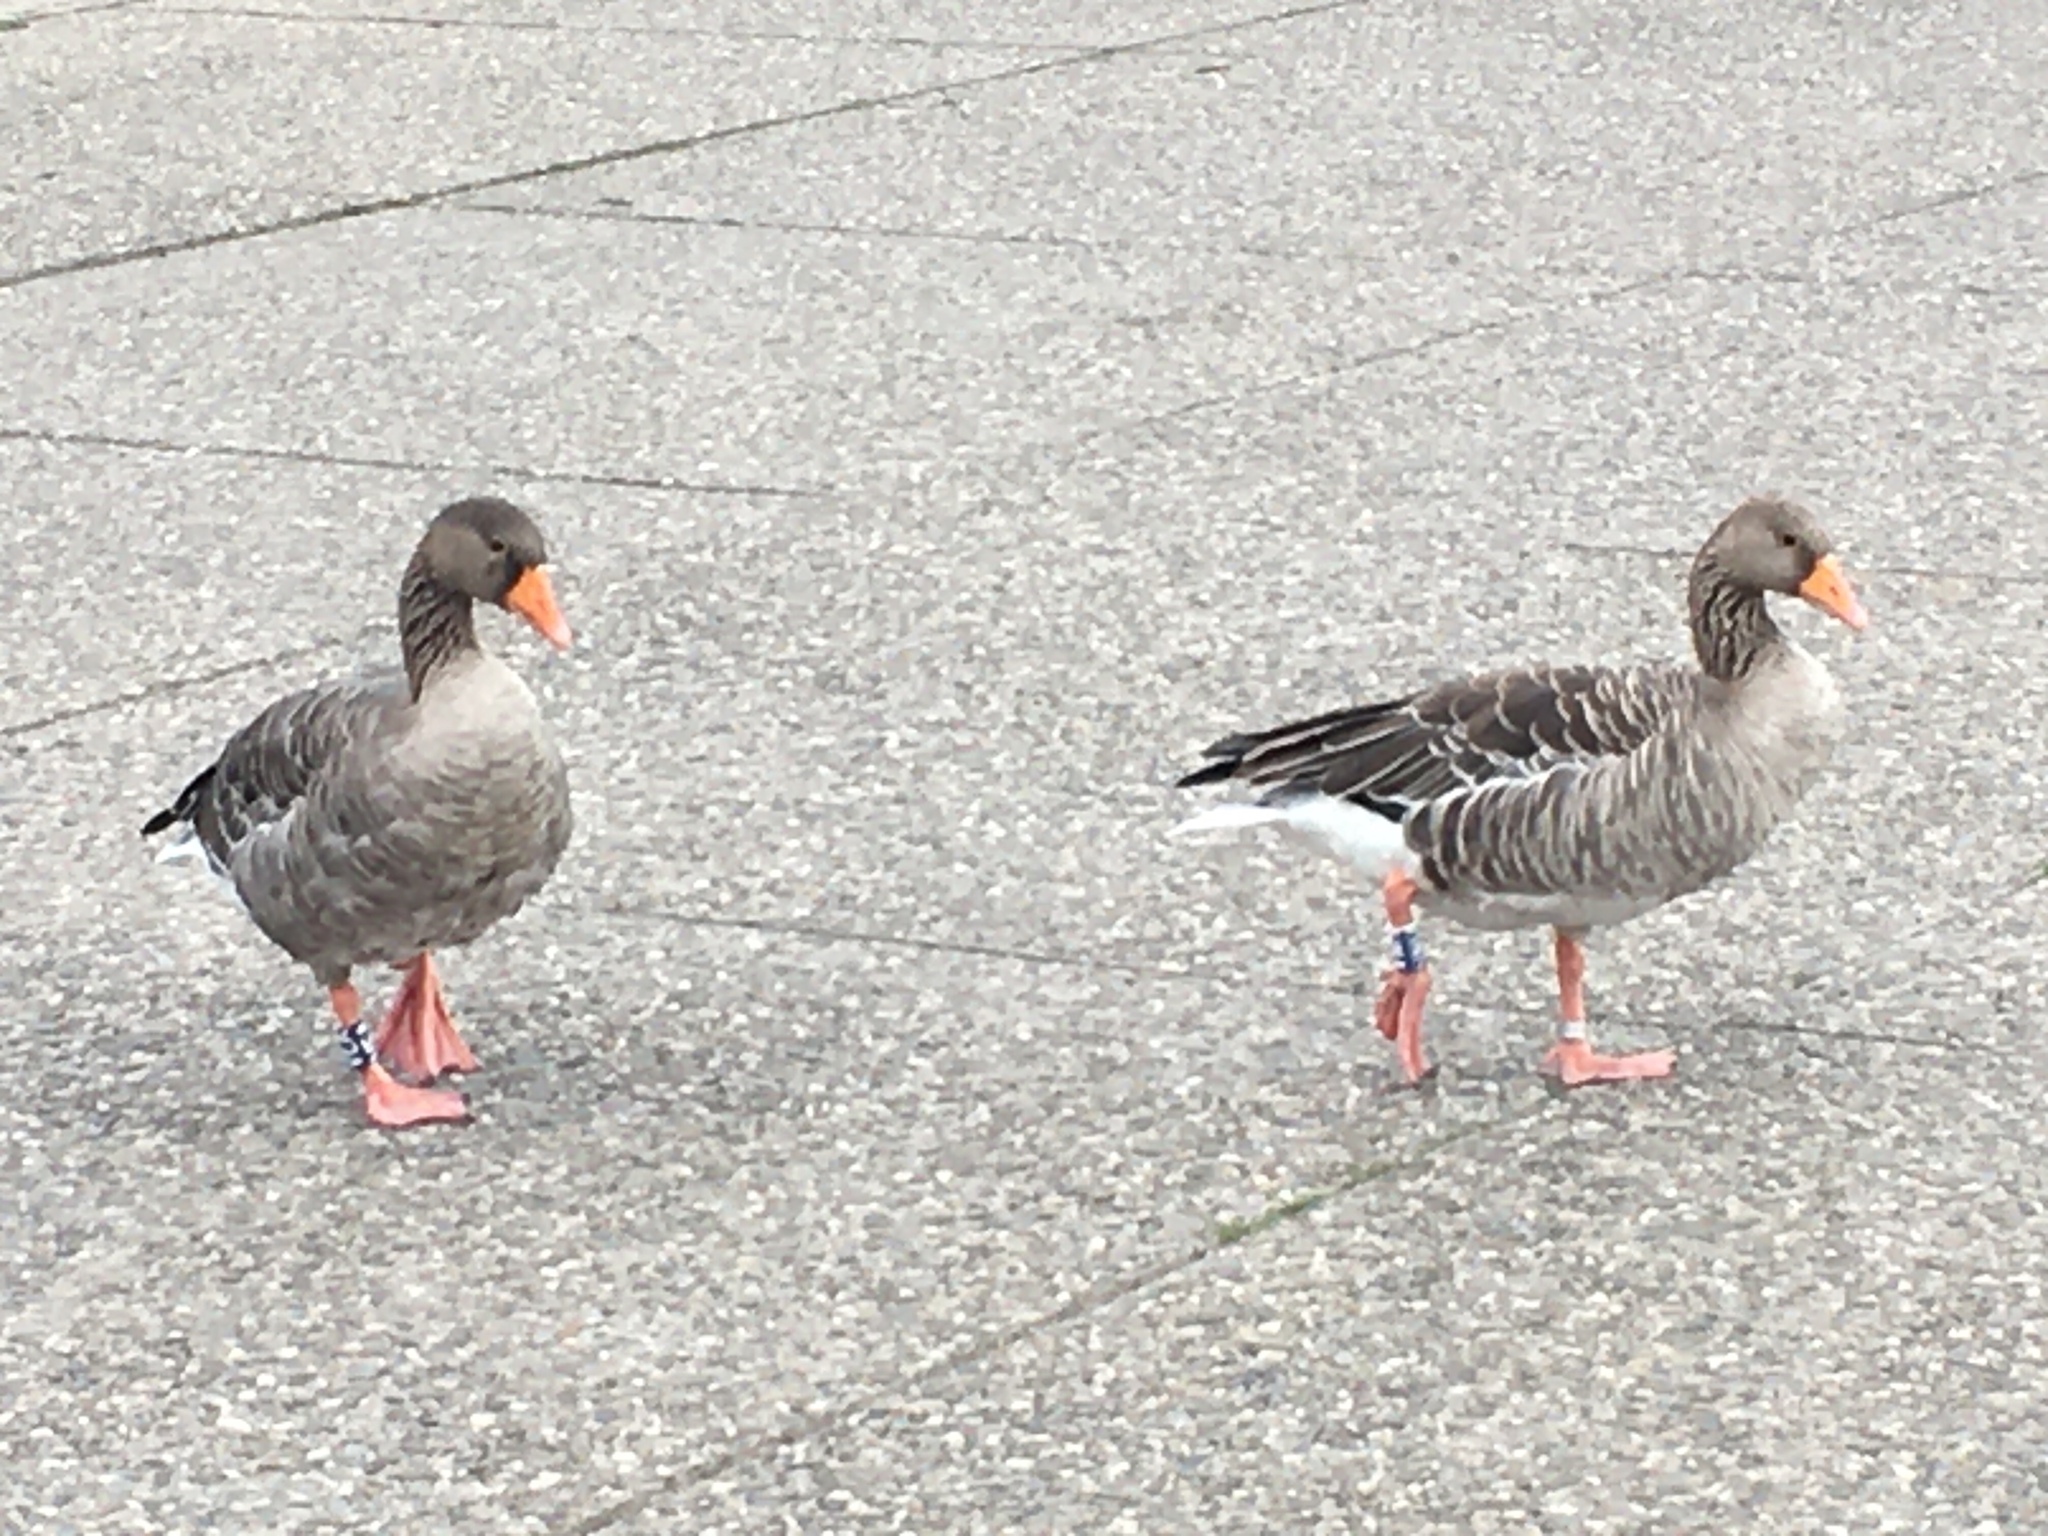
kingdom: Animalia
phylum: Chordata
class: Aves
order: Anseriformes
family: Anatidae
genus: Anser
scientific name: Anser anser
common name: Greylag goose
